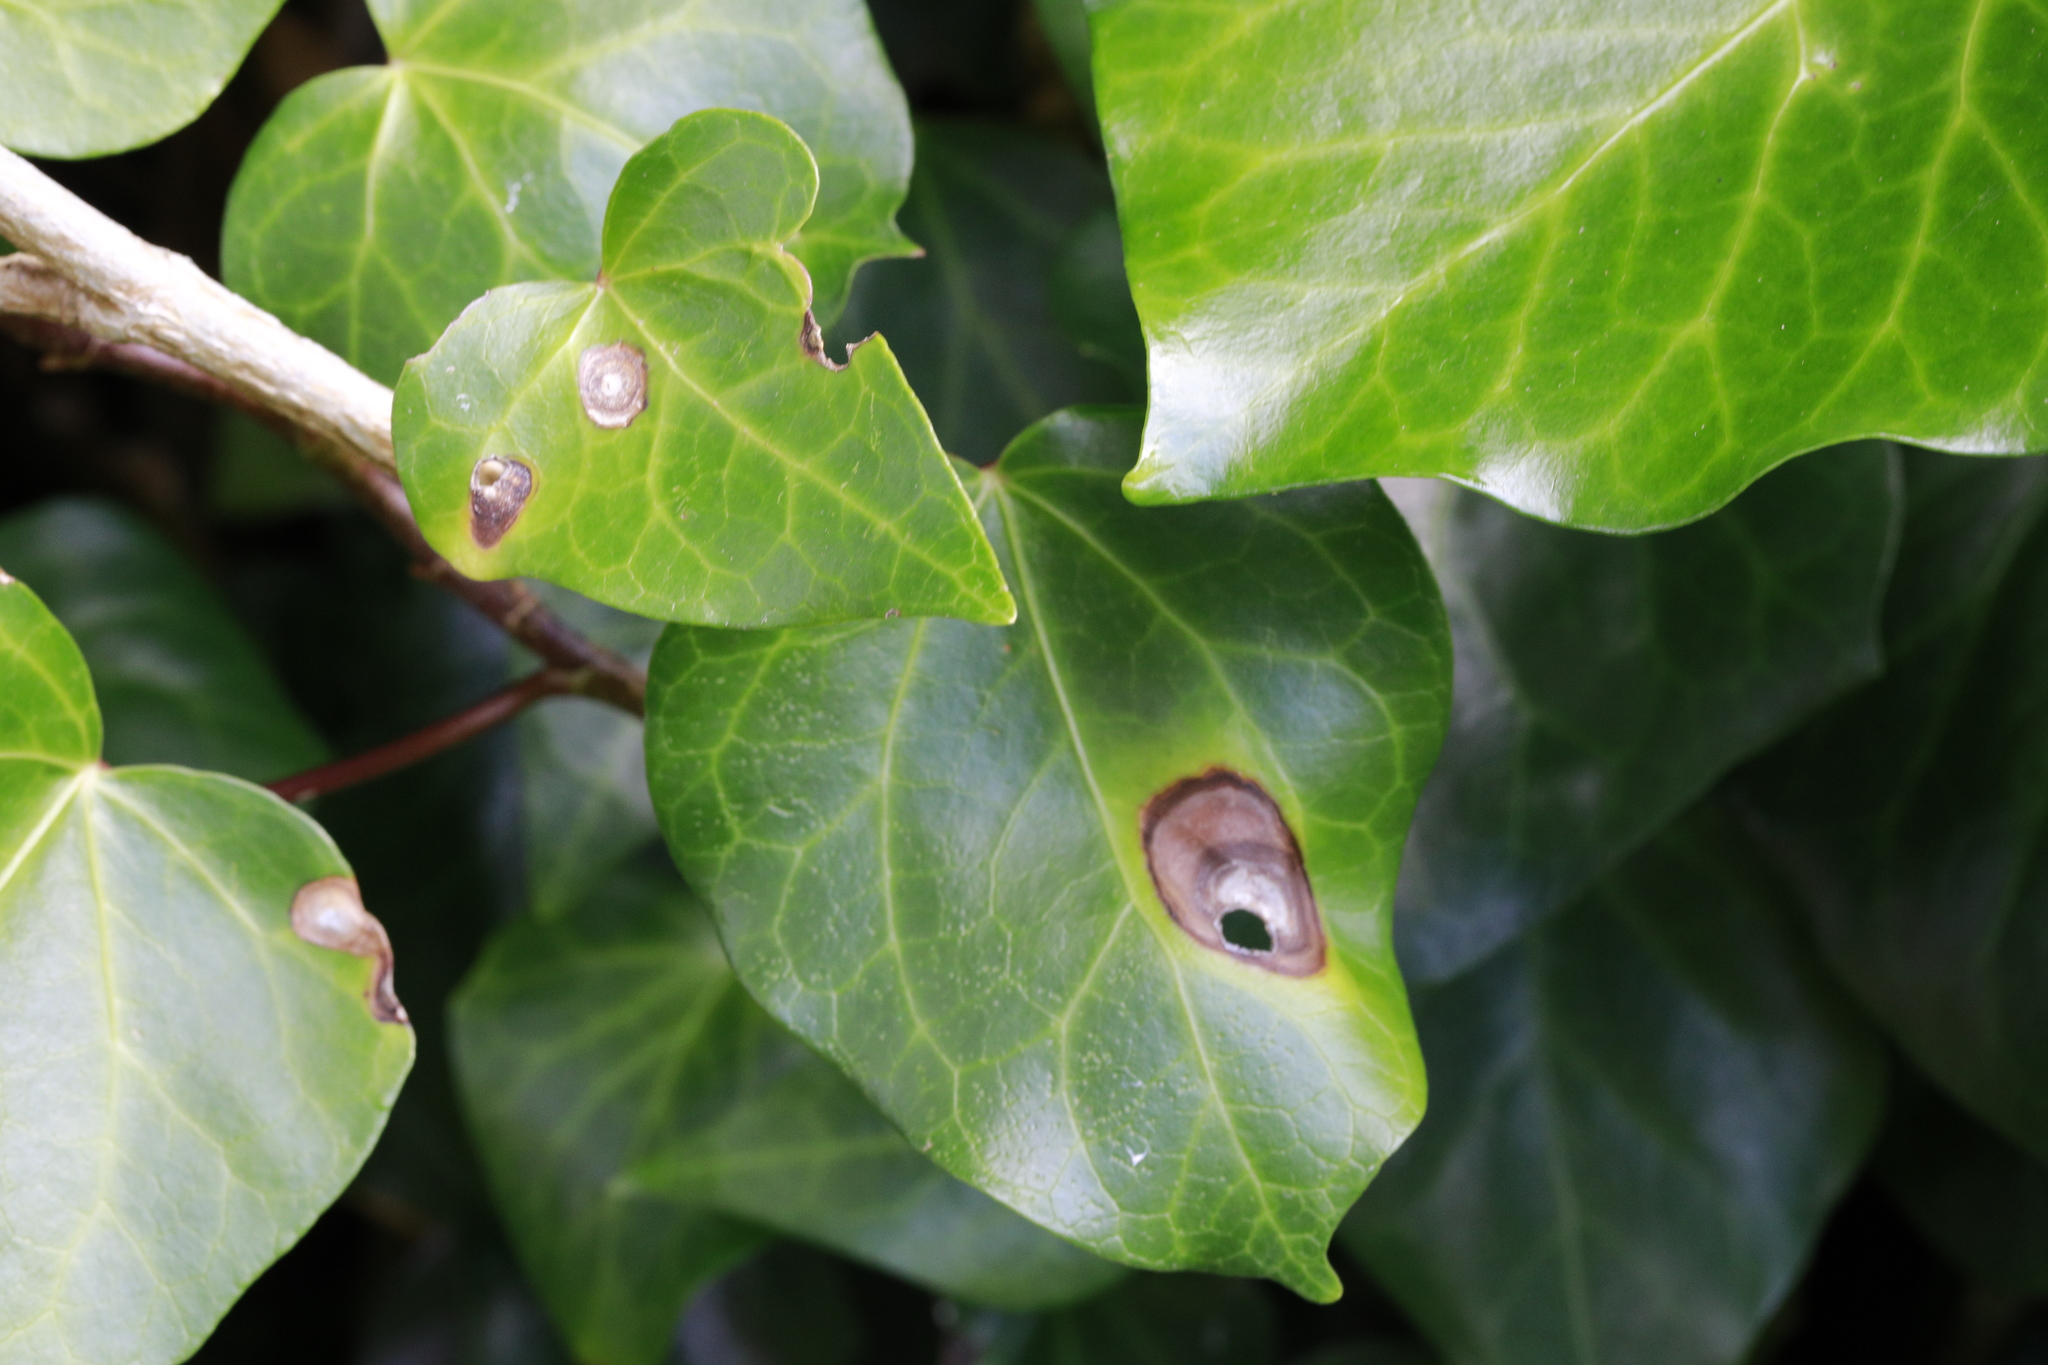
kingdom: Fungi
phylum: Ascomycota
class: Dothideomycetes
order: Pleosporales
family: Didymellaceae
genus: Boeremia
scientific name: Boeremia hedericola
